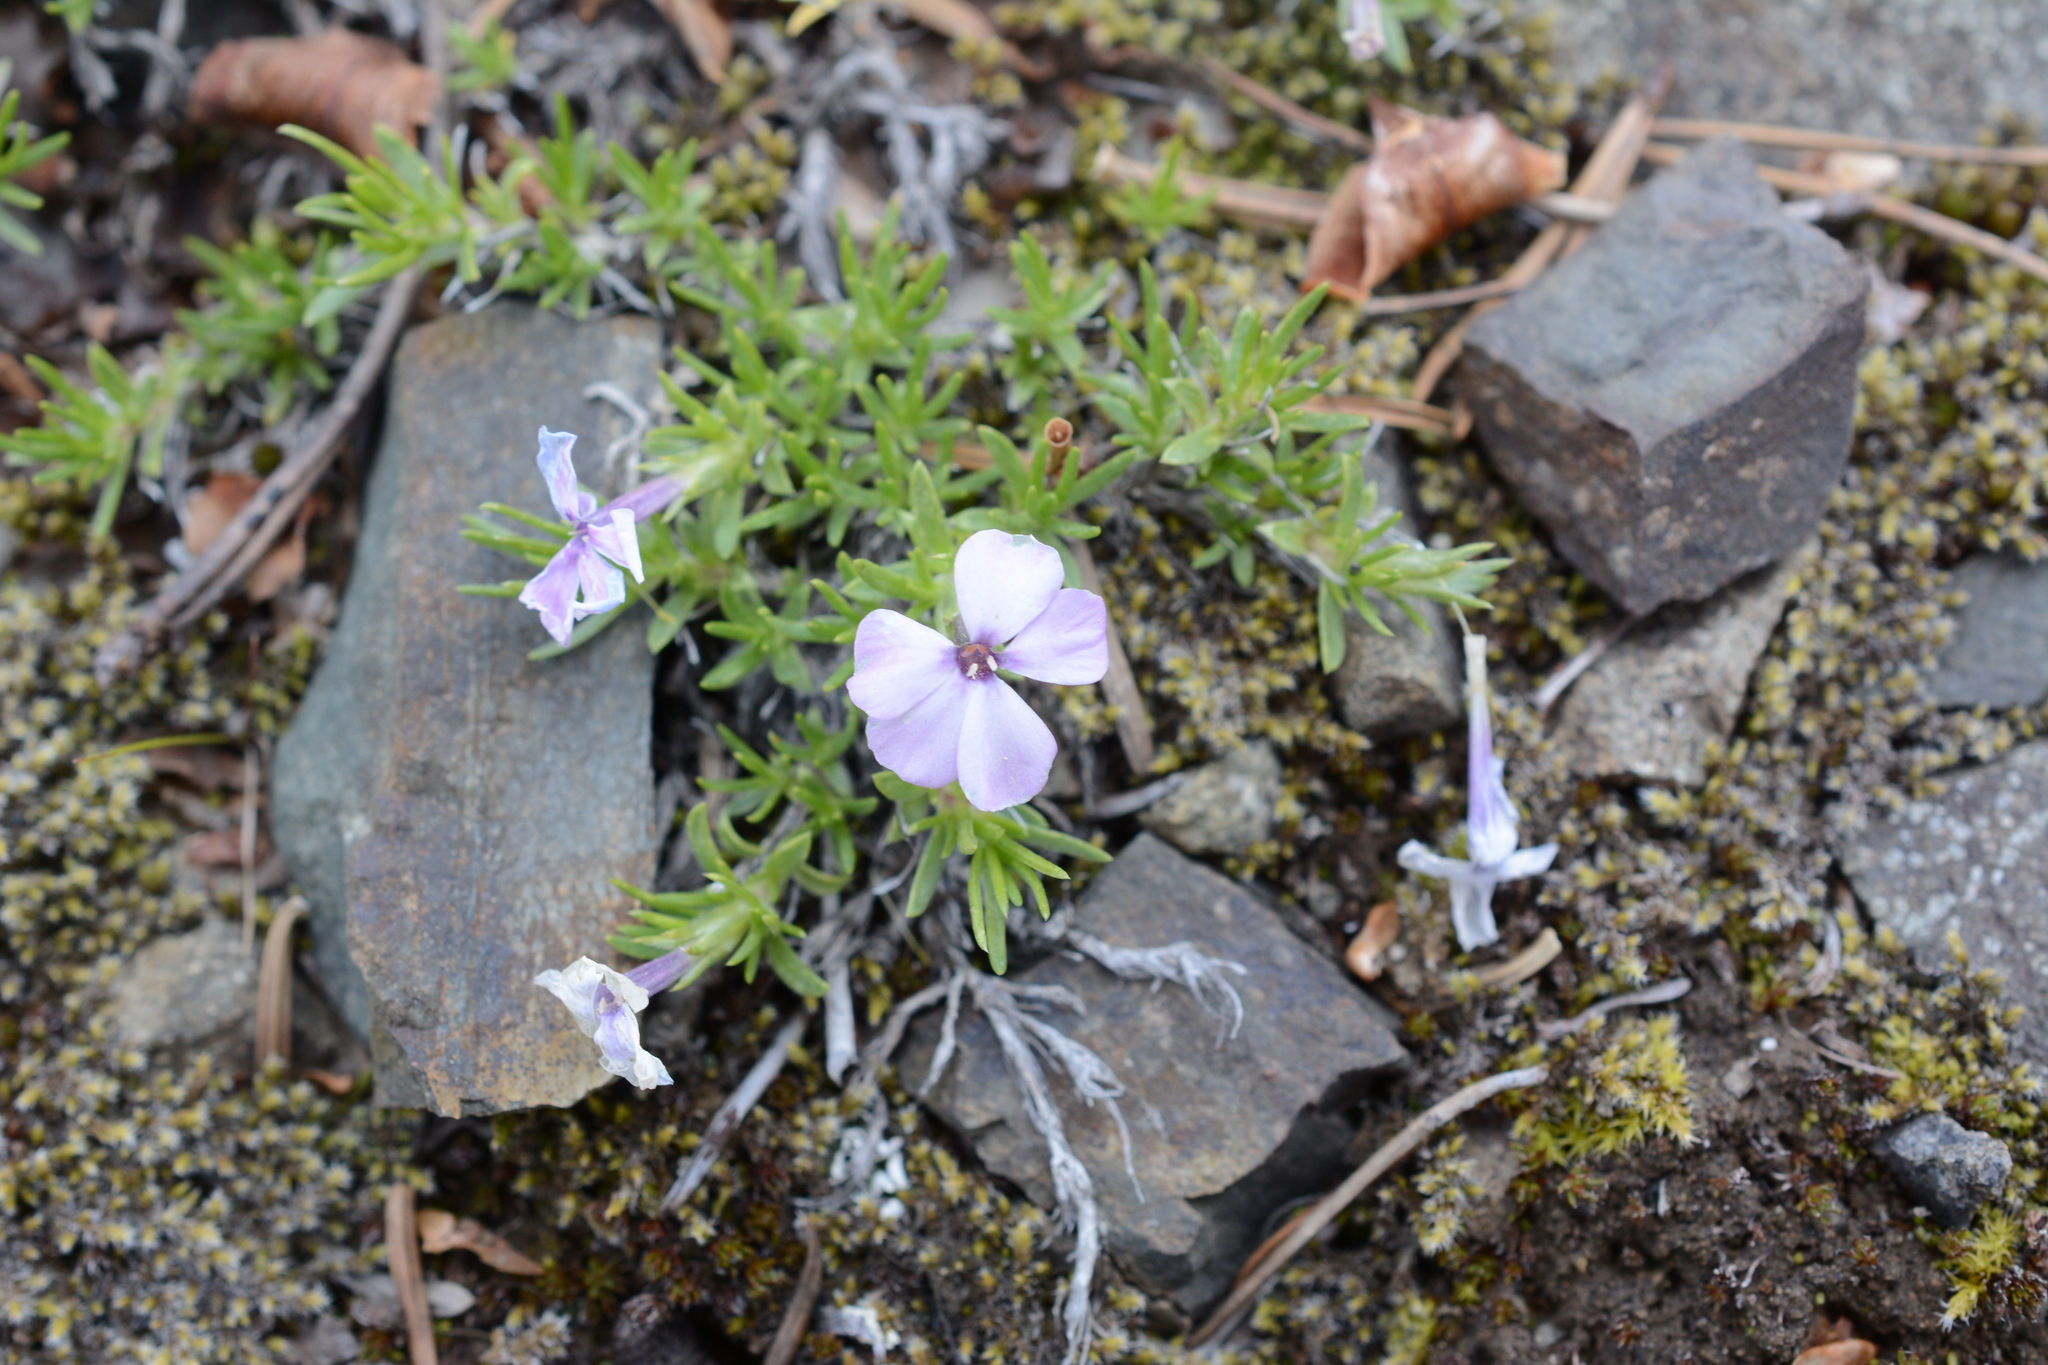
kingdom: Plantae
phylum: Tracheophyta
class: Magnoliopsida
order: Ericales
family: Polemoniaceae
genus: Phlox
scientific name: Phlox diffusa
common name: Mat phlox
